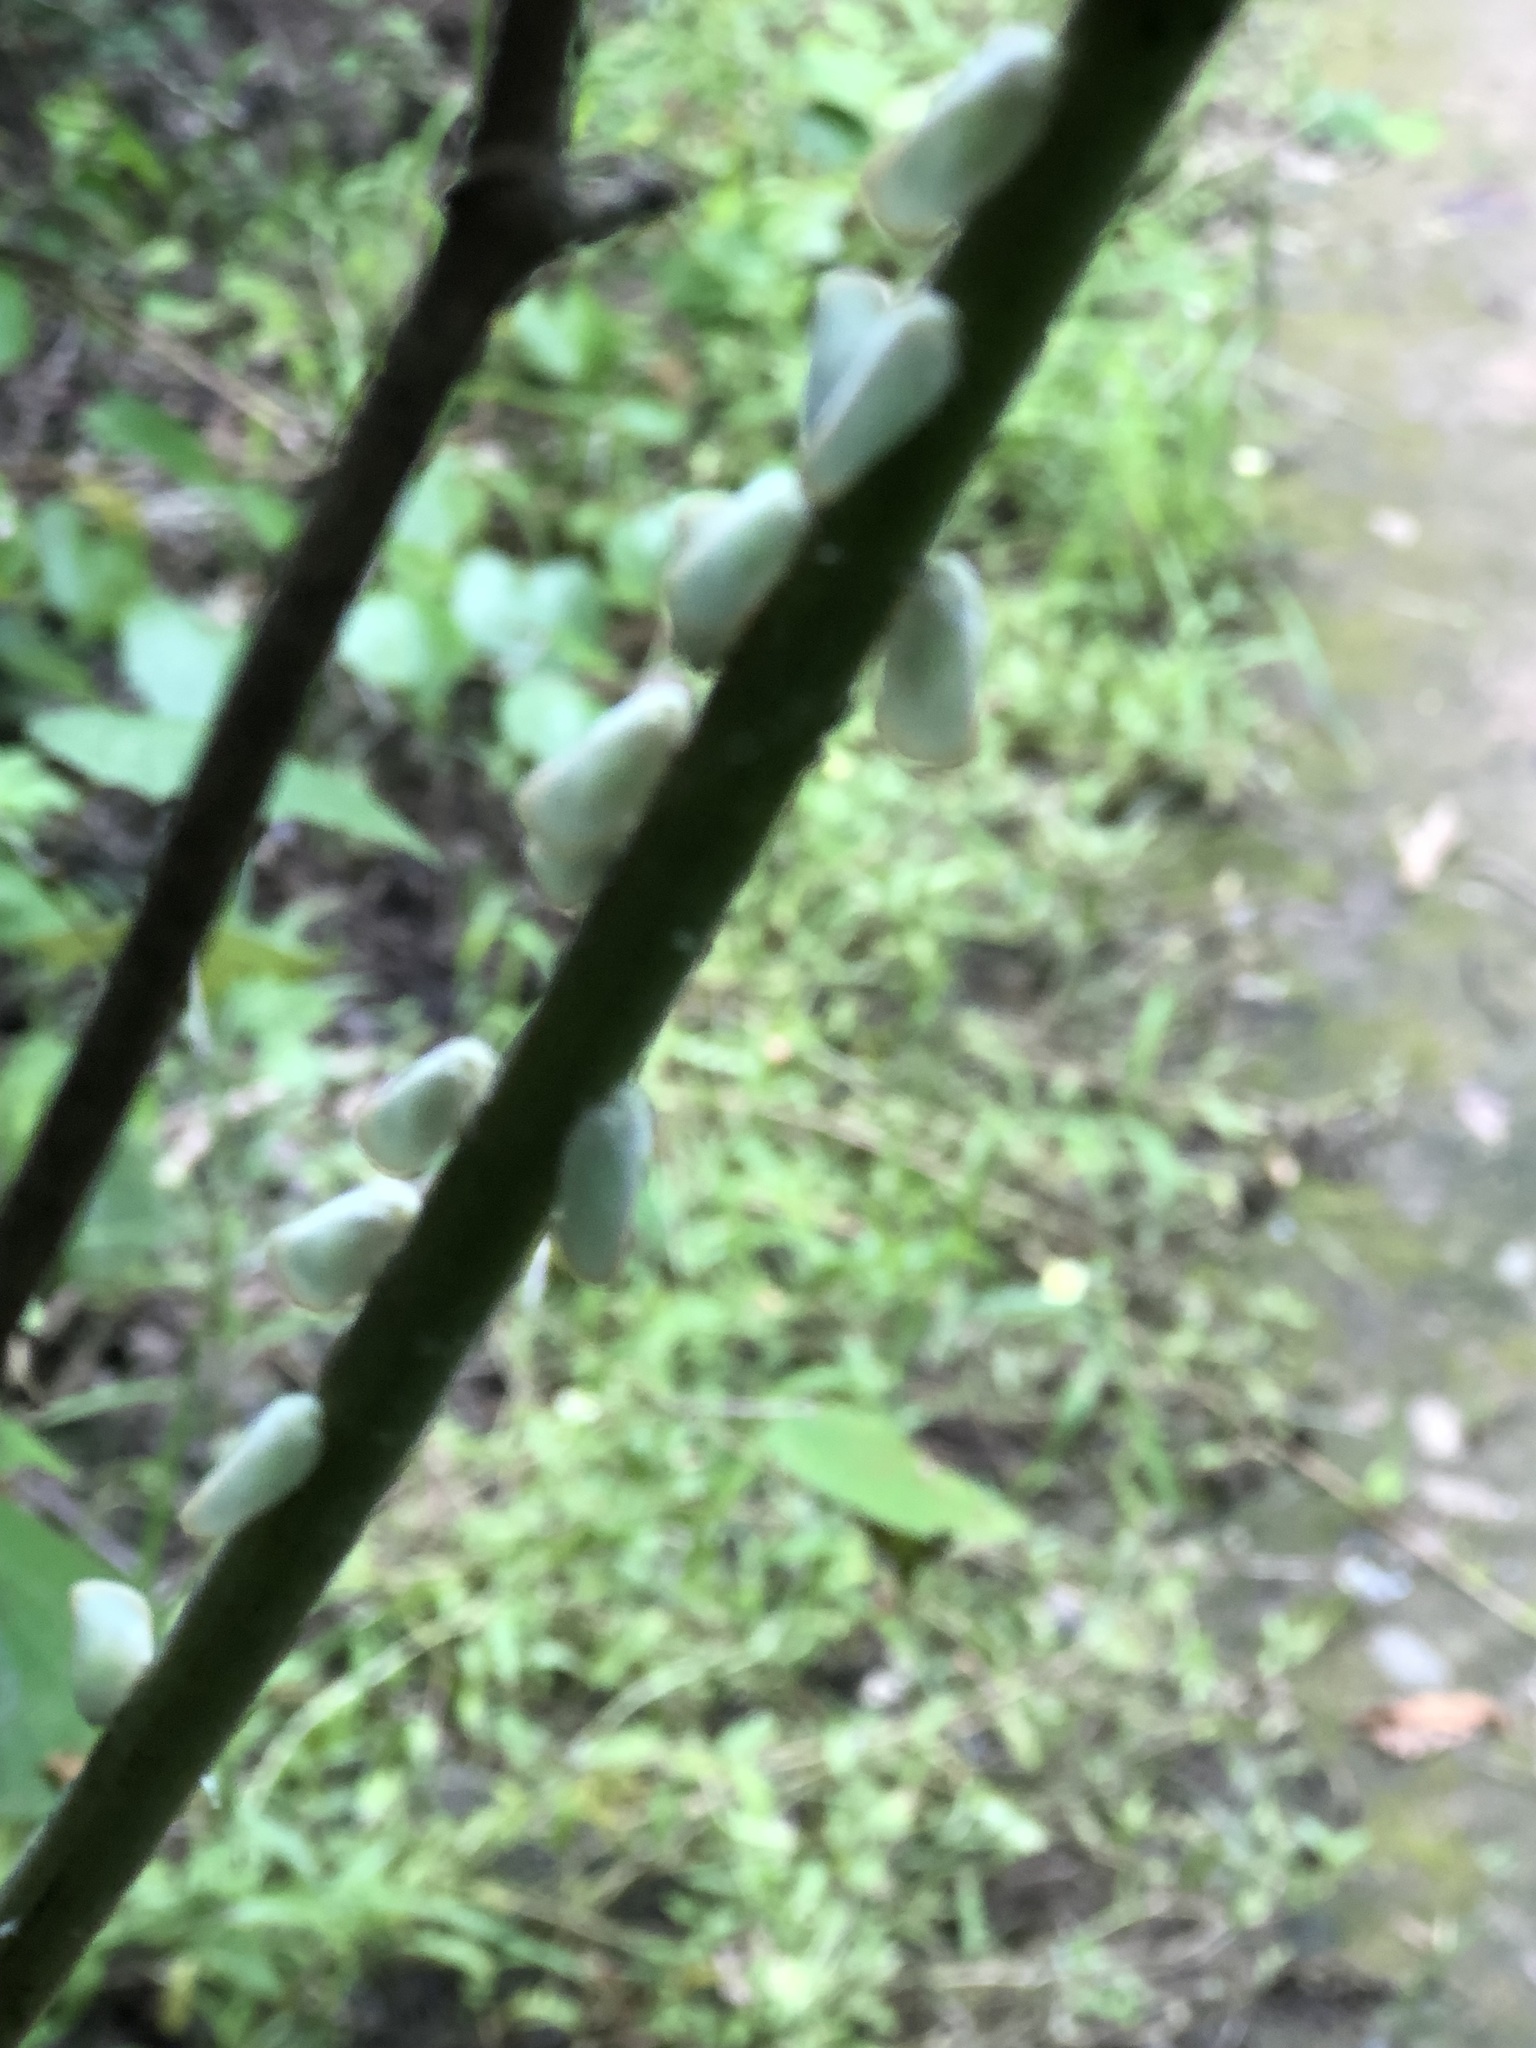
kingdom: Animalia
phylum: Arthropoda
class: Insecta
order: Hemiptera
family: Flatidae
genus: Ormenoides
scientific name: Ormenoides venusta
